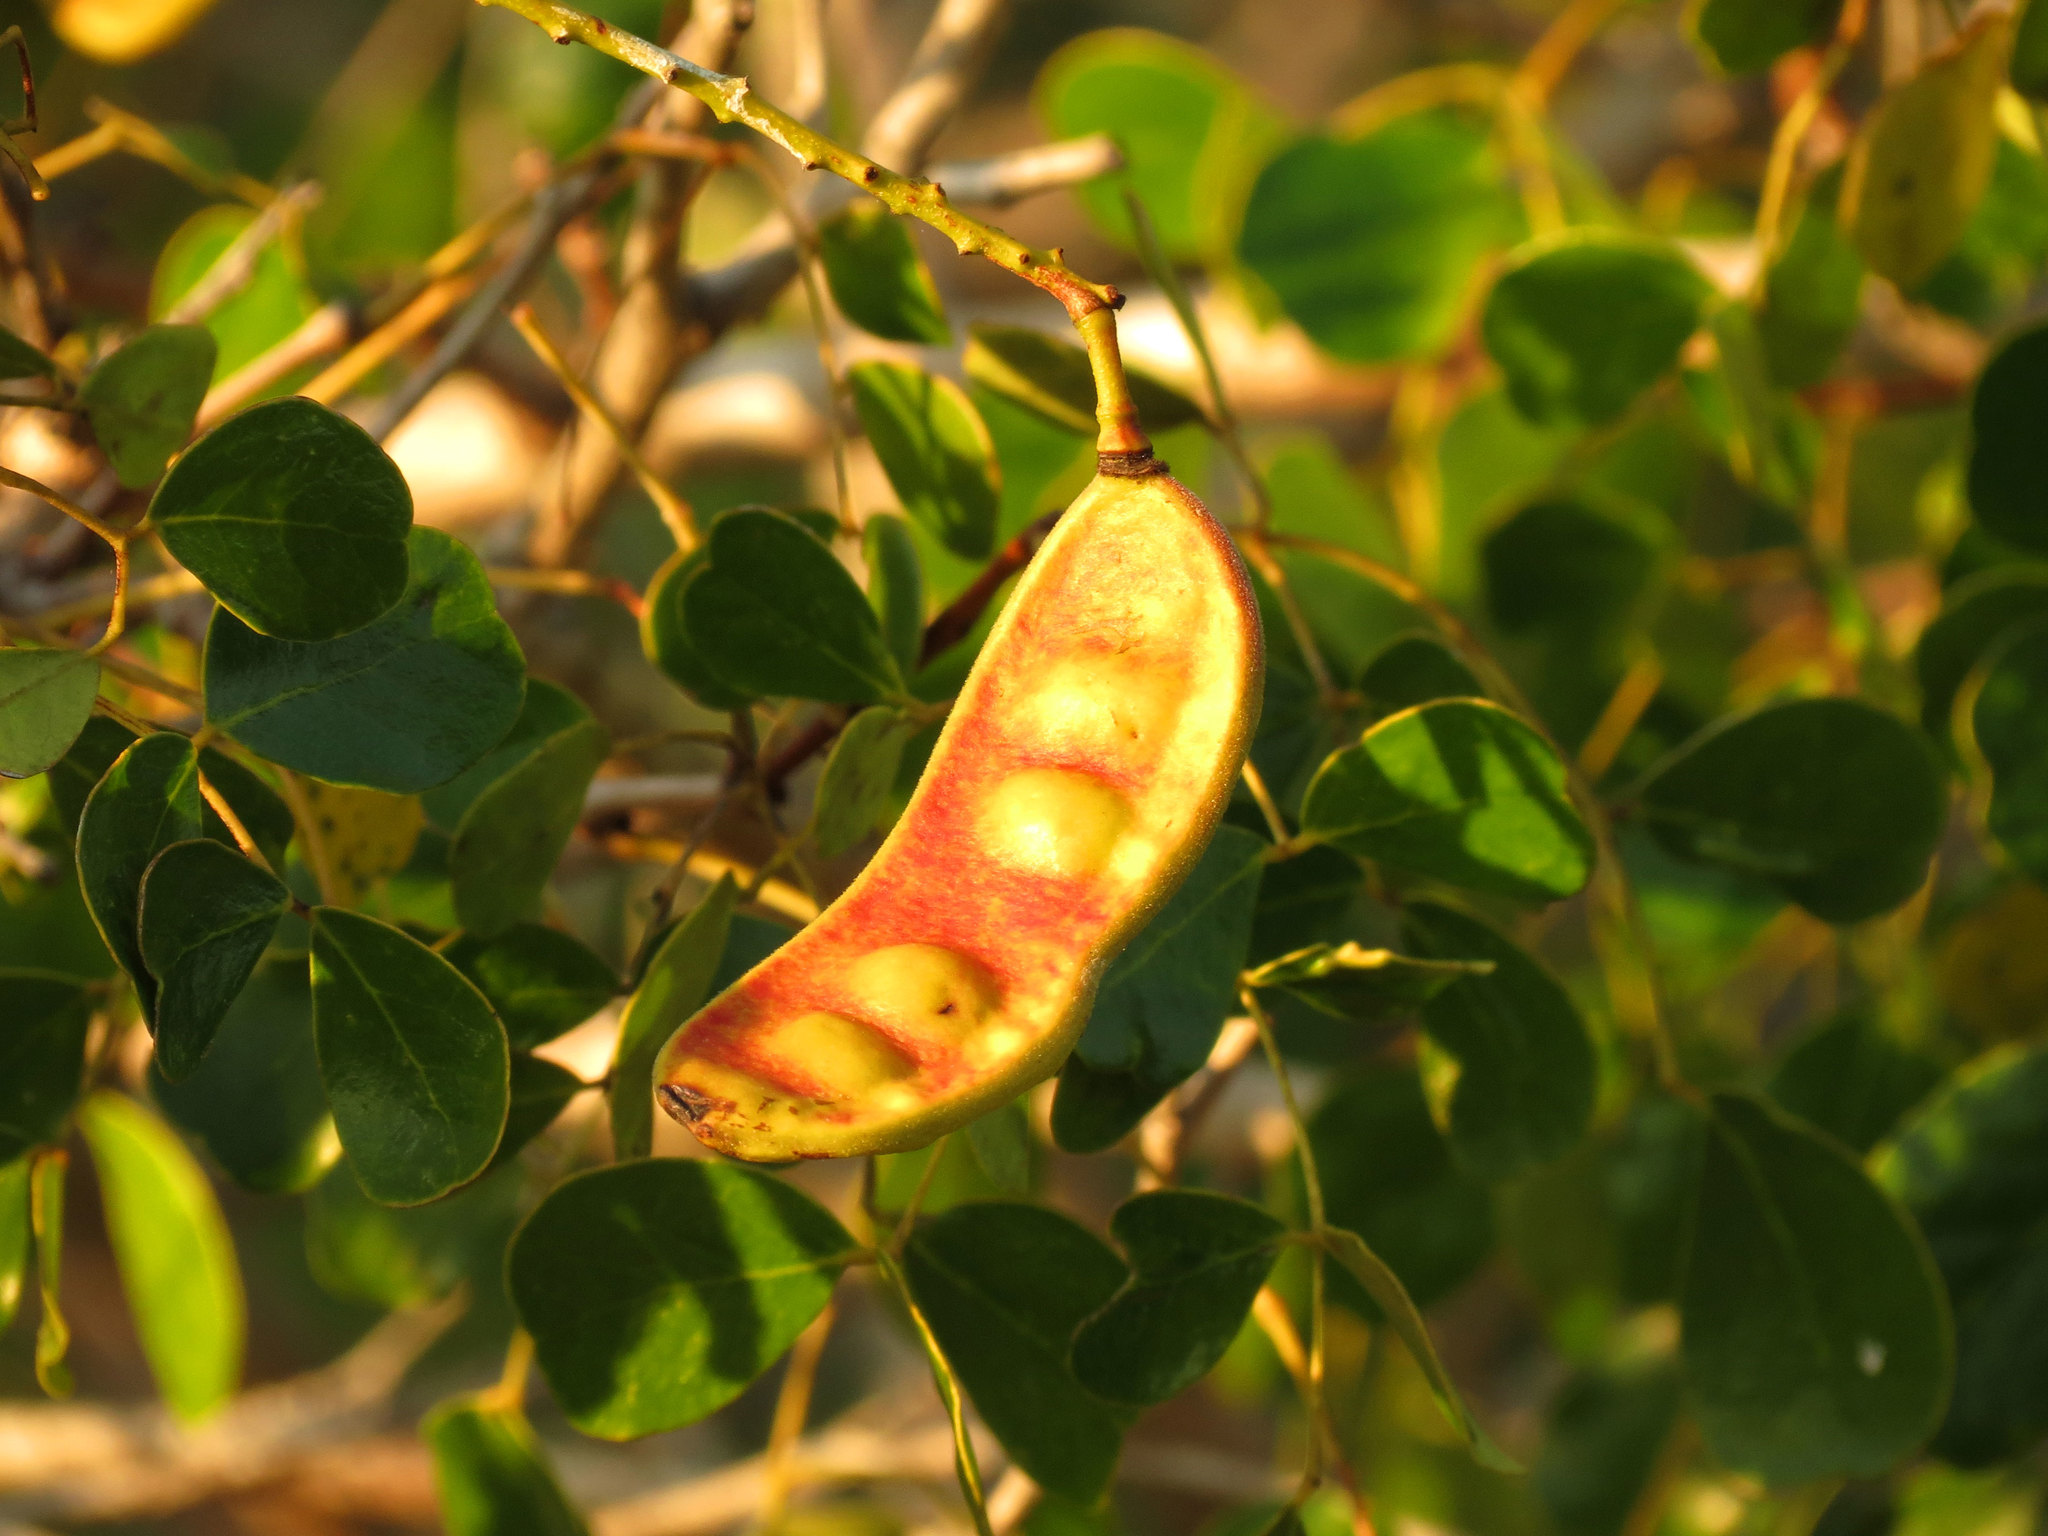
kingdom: Plantae
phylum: Tracheophyta
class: Magnoliopsida
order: Fabales
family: Fabaceae
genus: Tara
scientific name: Tara vesicaria
